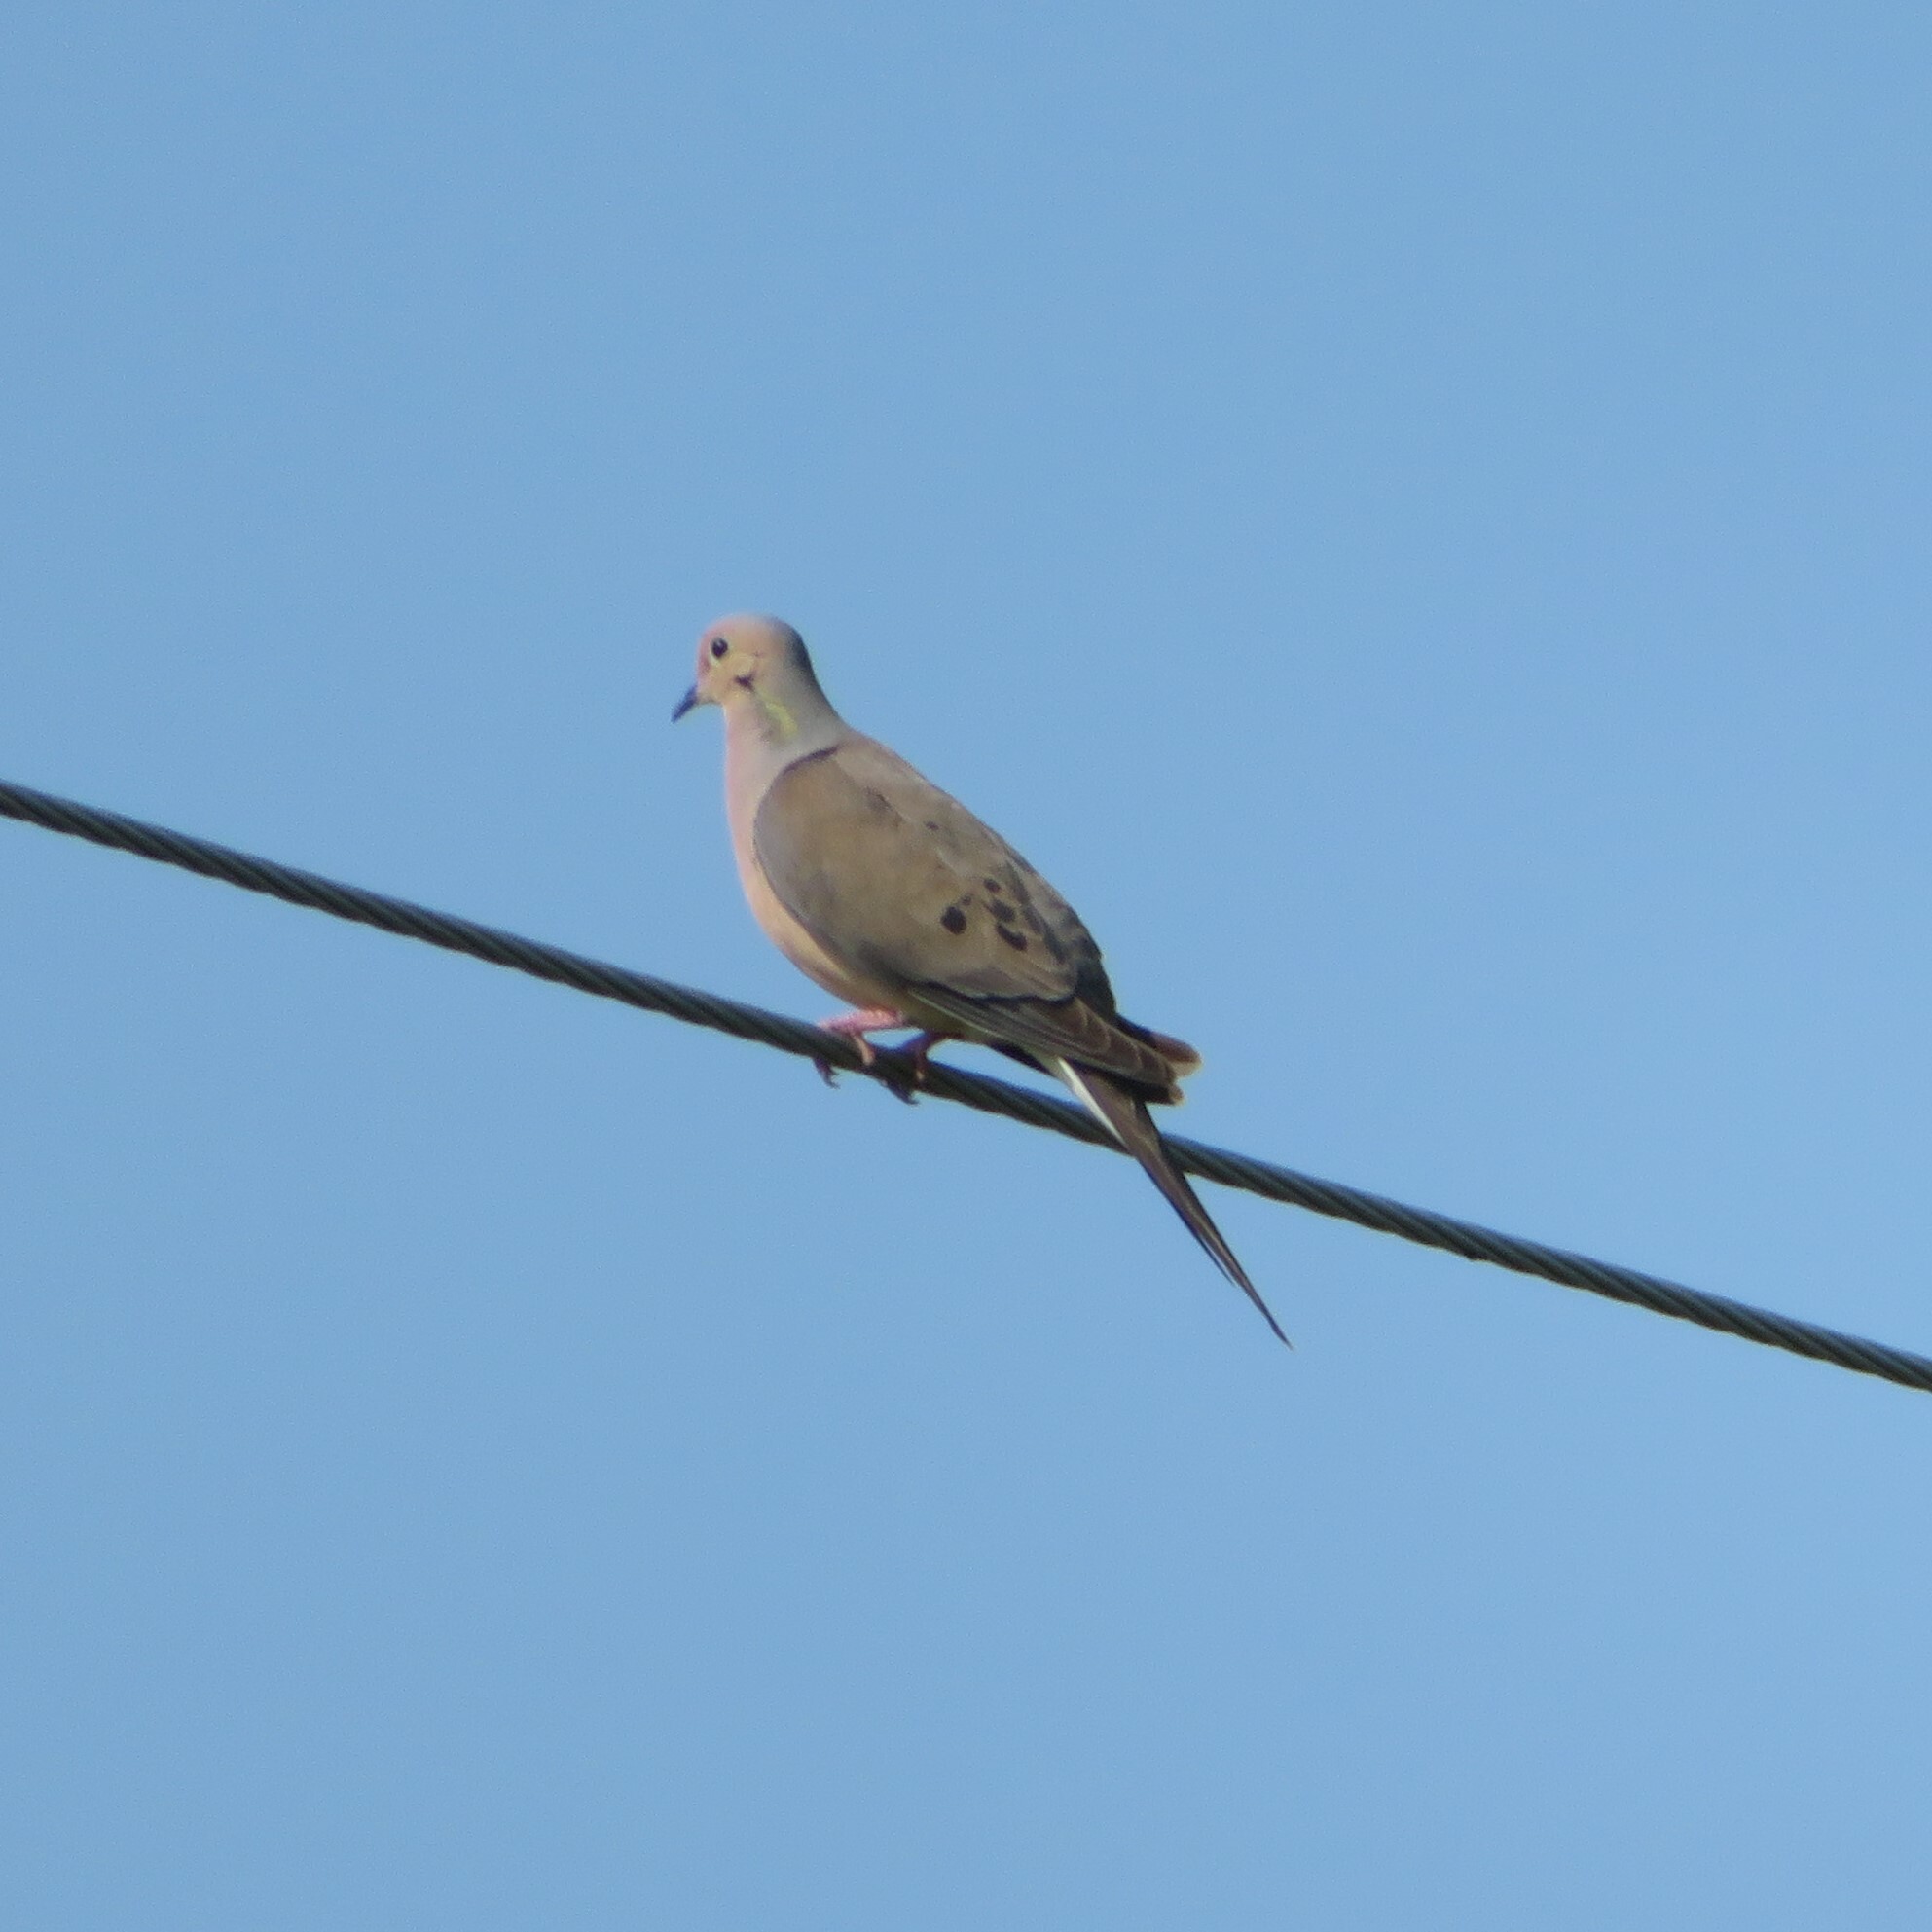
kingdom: Animalia
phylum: Chordata
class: Aves
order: Columbiformes
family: Columbidae
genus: Zenaida
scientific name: Zenaida macroura
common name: Mourning dove
